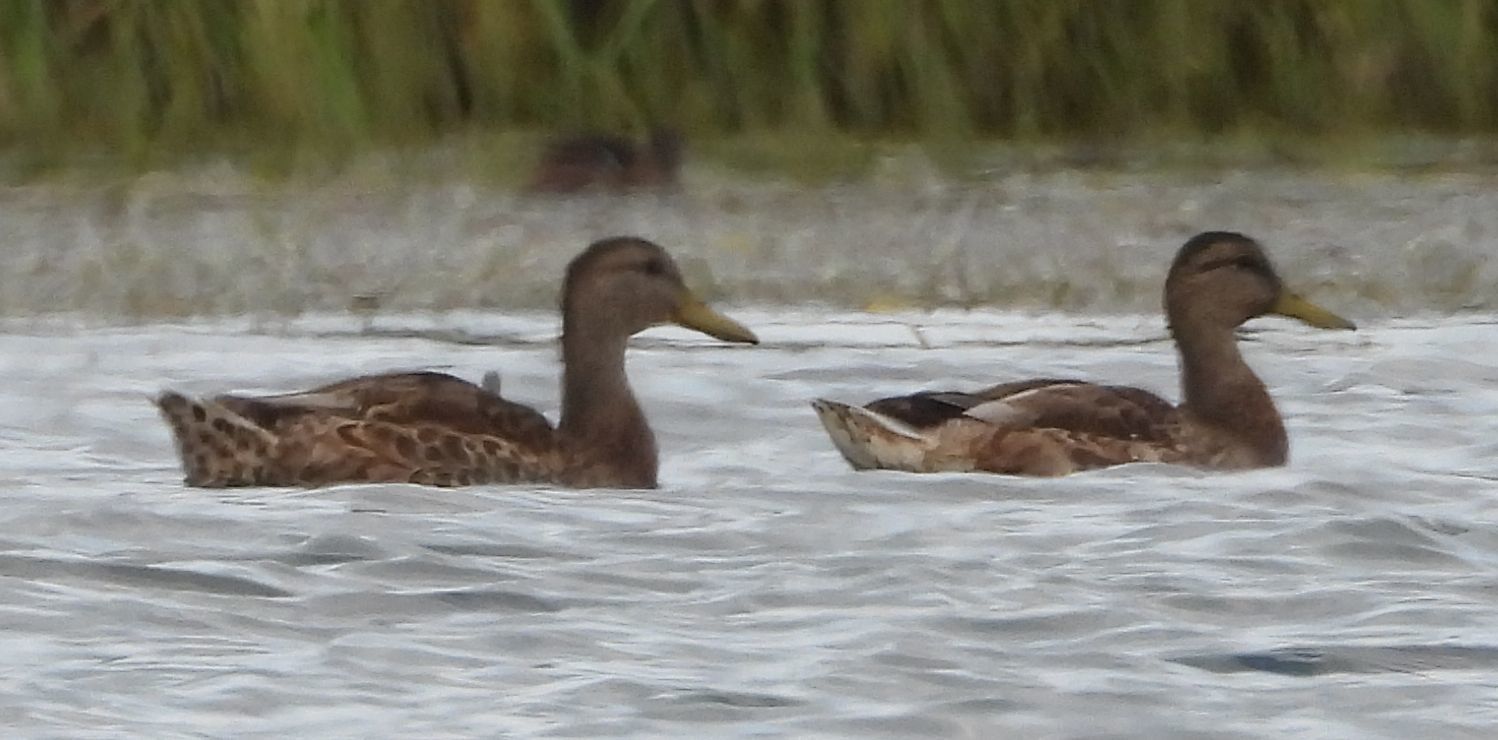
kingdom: Animalia
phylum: Chordata
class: Aves
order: Anseriformes
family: Anatidae
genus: Anas
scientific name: Anas platyrhynchos
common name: Mallard
